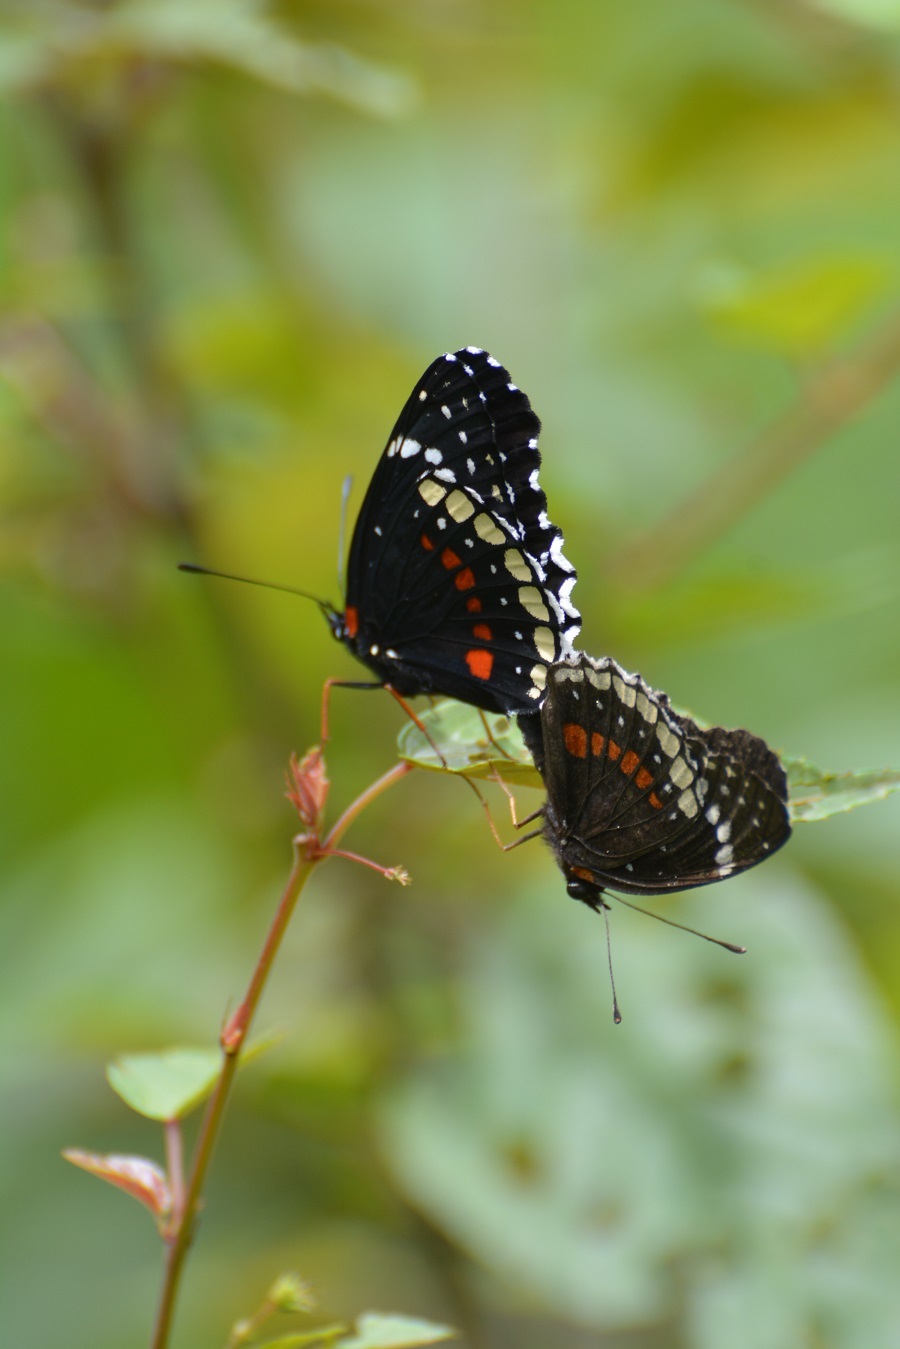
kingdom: Animalia
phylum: Arthropoda
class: Insecta
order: Lepidoptera
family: Nymphalidae
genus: Chlosyne
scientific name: Chlosyne hippodrome
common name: Simple patch
